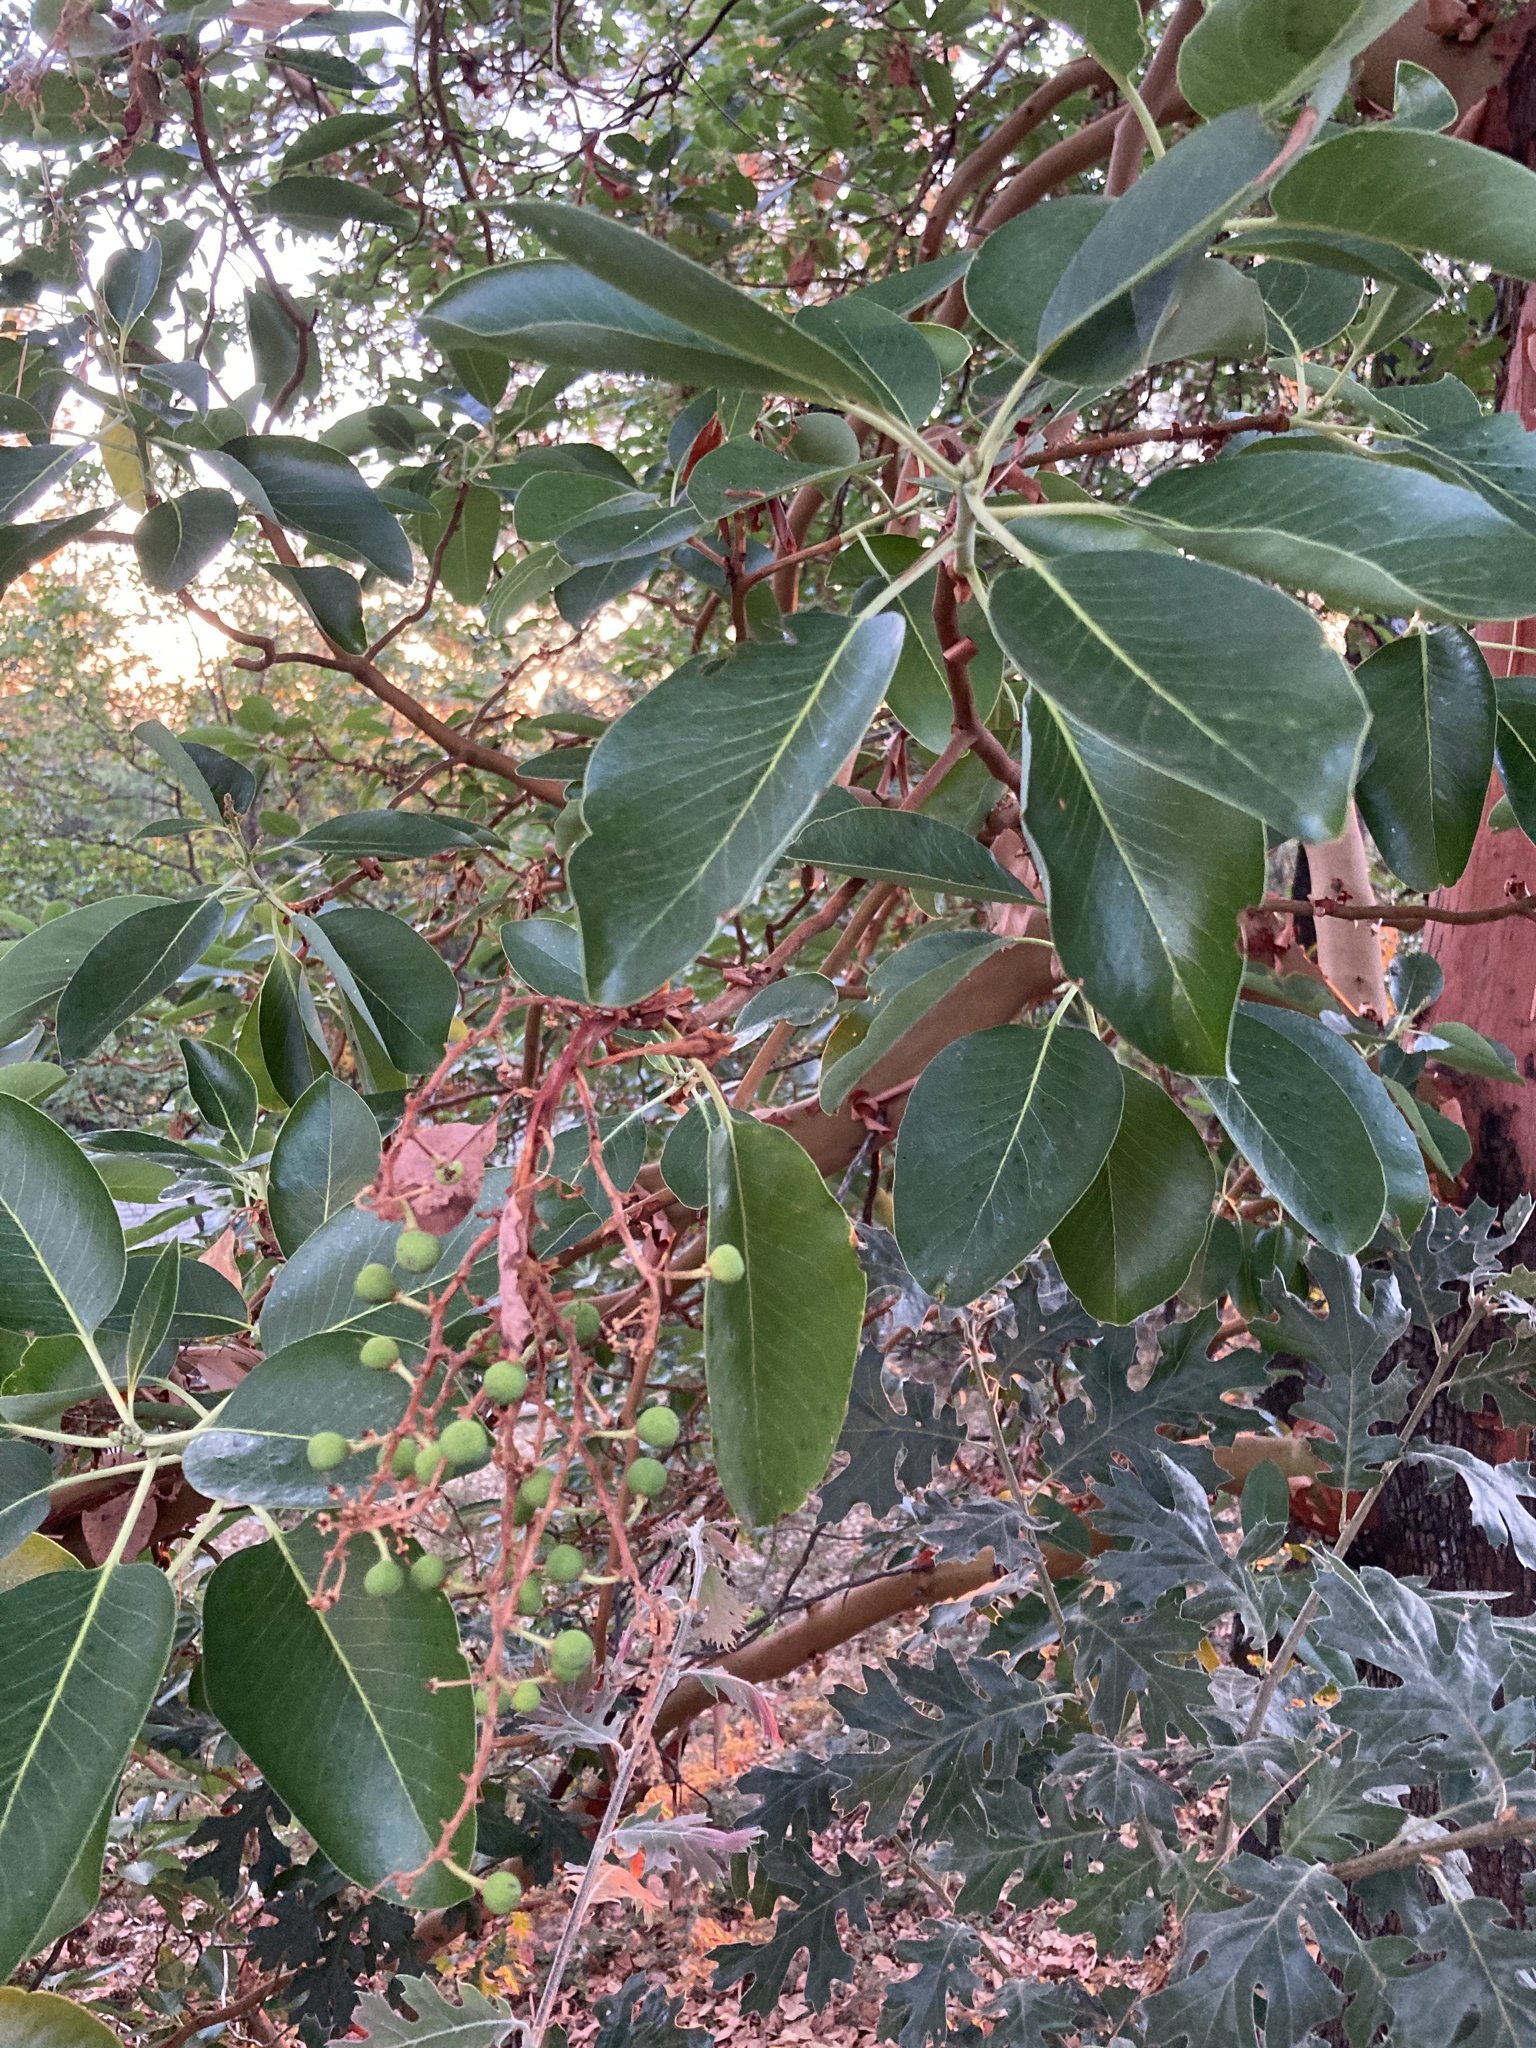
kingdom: Plantae
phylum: Tracheophyta
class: Magnoliopsida
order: Ericales
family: Ericaceae
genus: Arbutus
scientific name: Arbutus menziesii
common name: Pacific madrone
